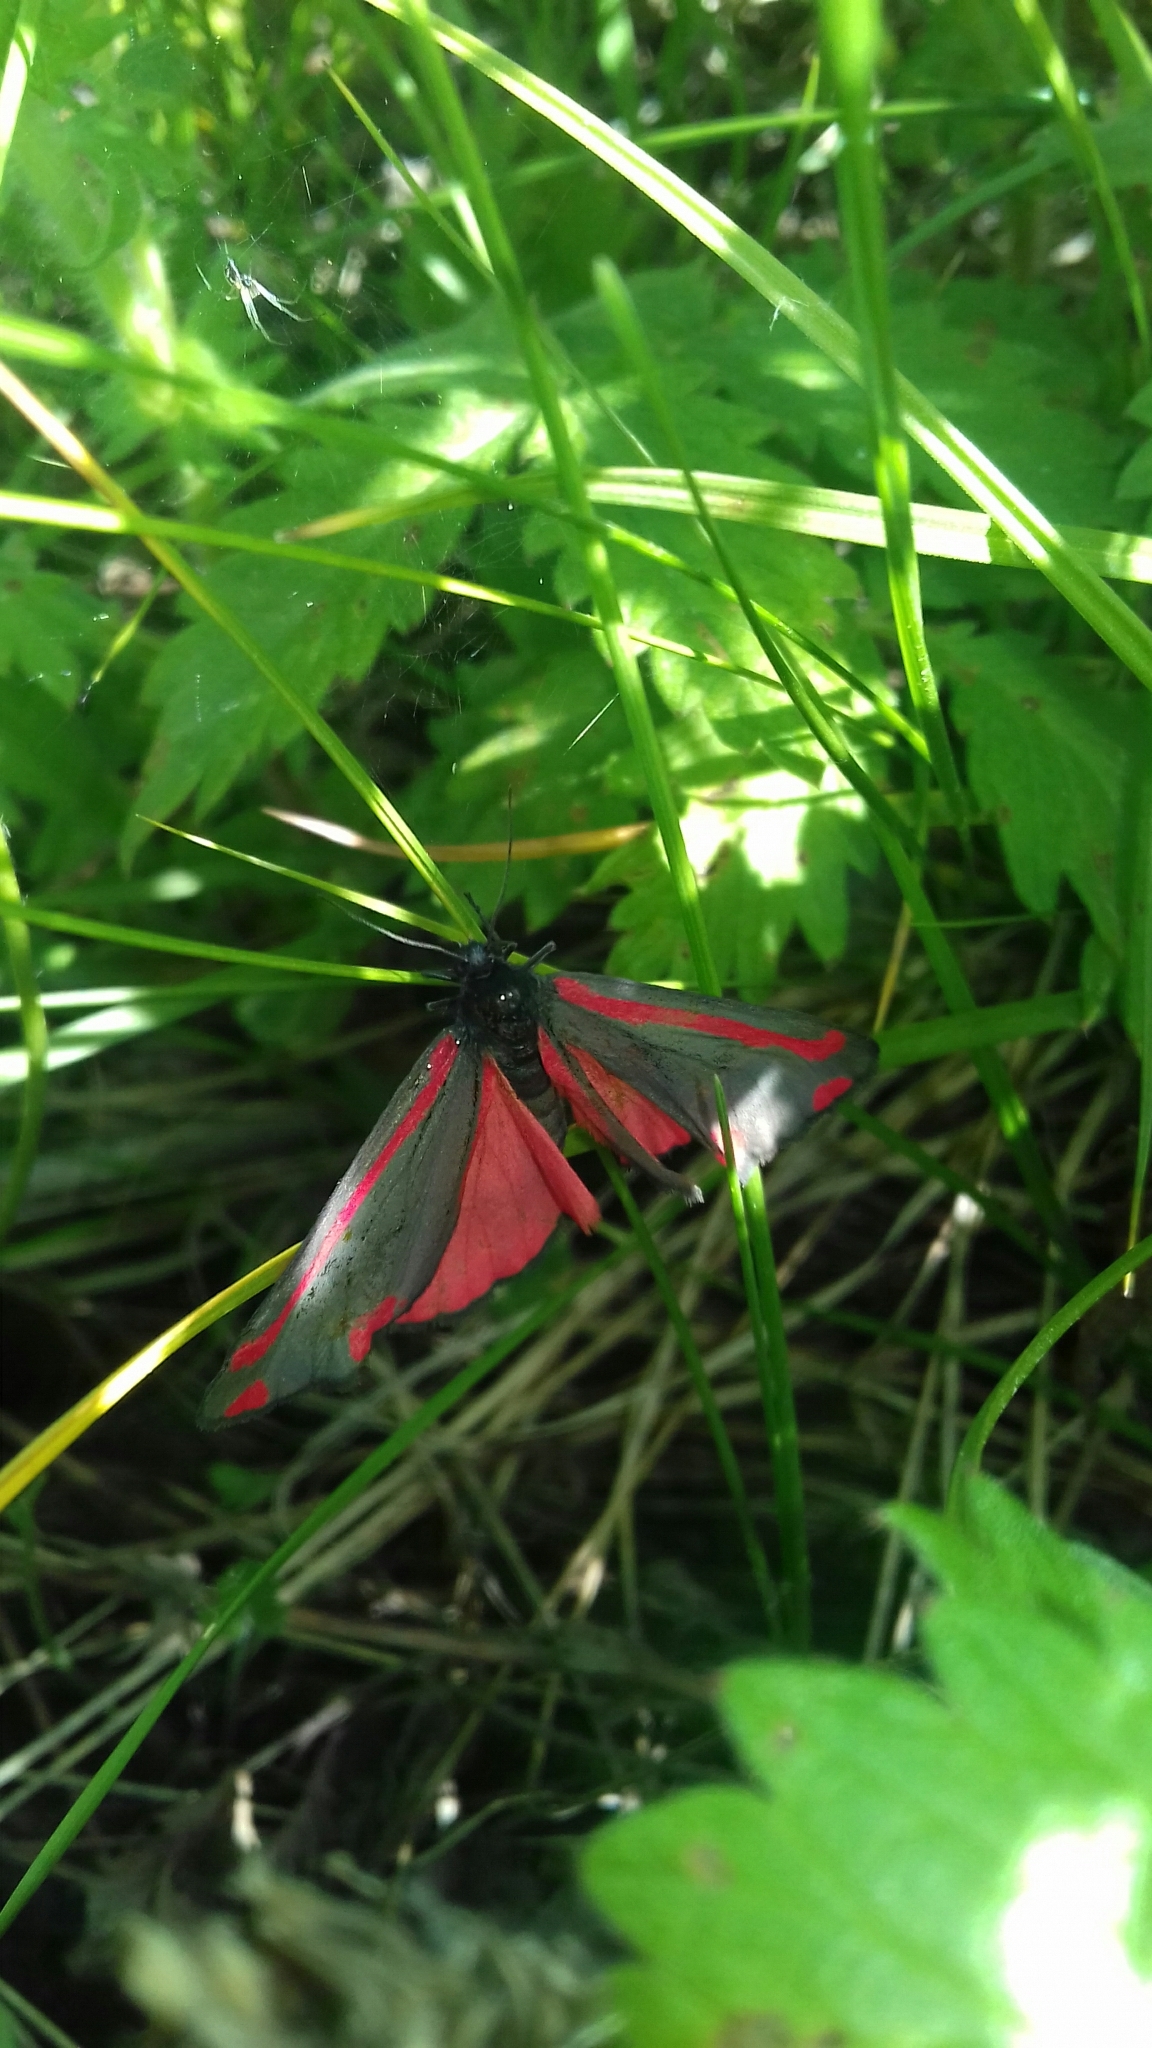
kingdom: Animalia
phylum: Arthropoda
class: Insecta
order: Lepidoptera
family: Erebidae
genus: Tyria
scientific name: Tyria jacobaeae
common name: Cinnabar
